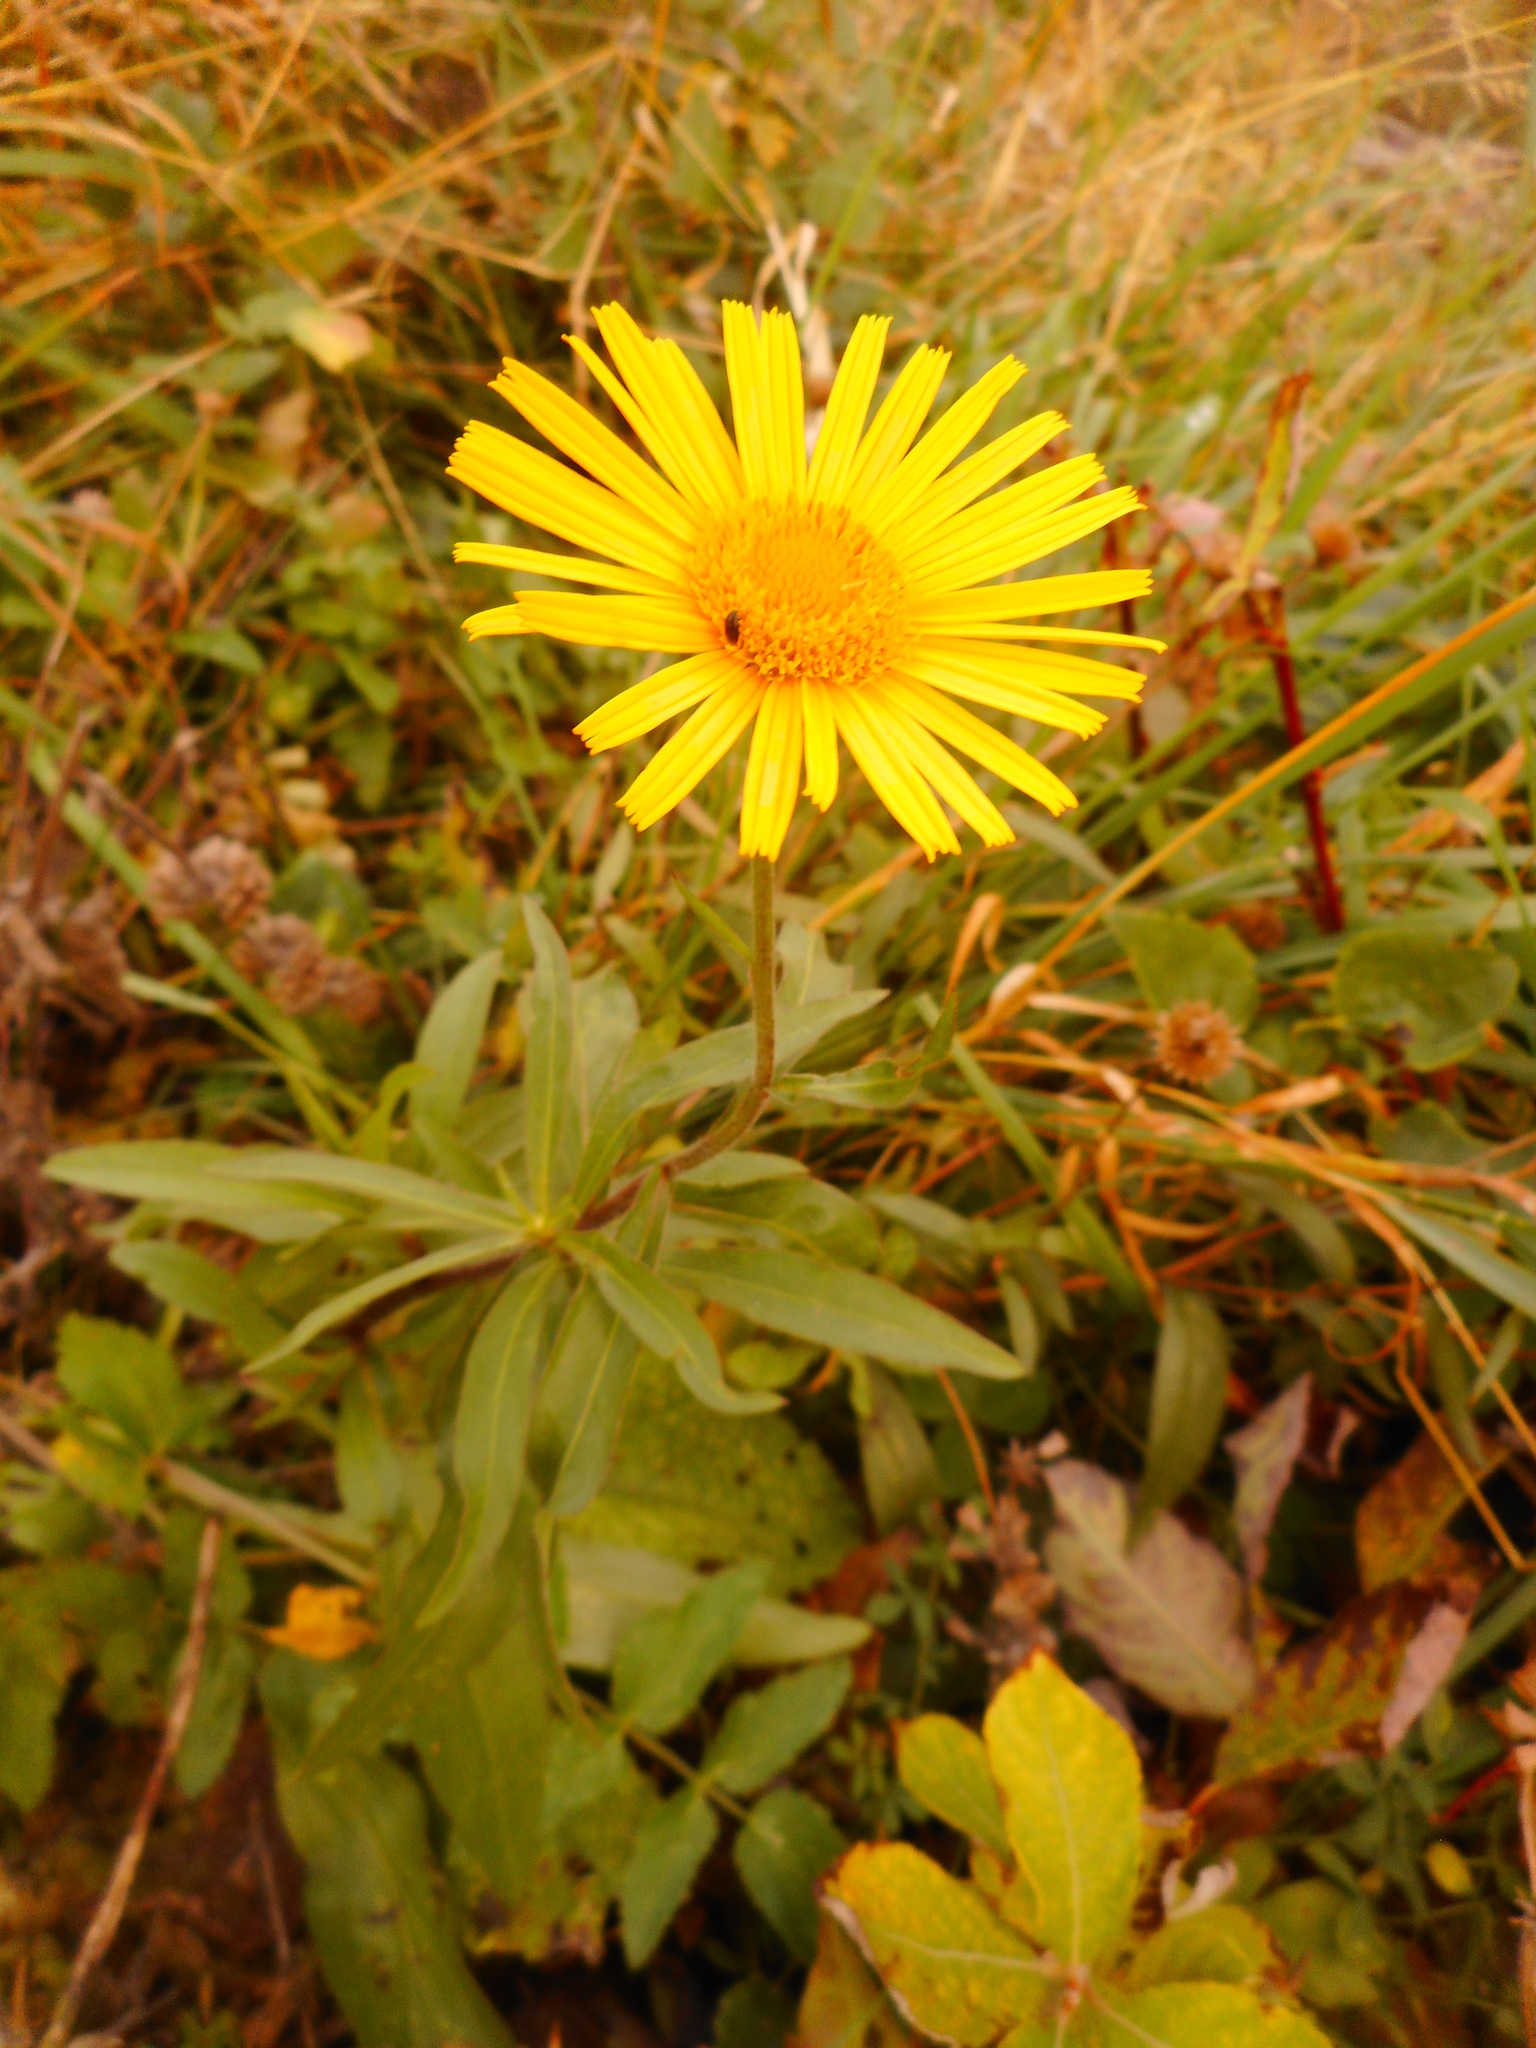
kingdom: Plantae
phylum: Tracheophyta
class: Magnoliopsida
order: Asterales
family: Asteraceae
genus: Buphthalmum
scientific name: Buphthalmum salicifolium
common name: Willow-leaved yellow-oxeye
